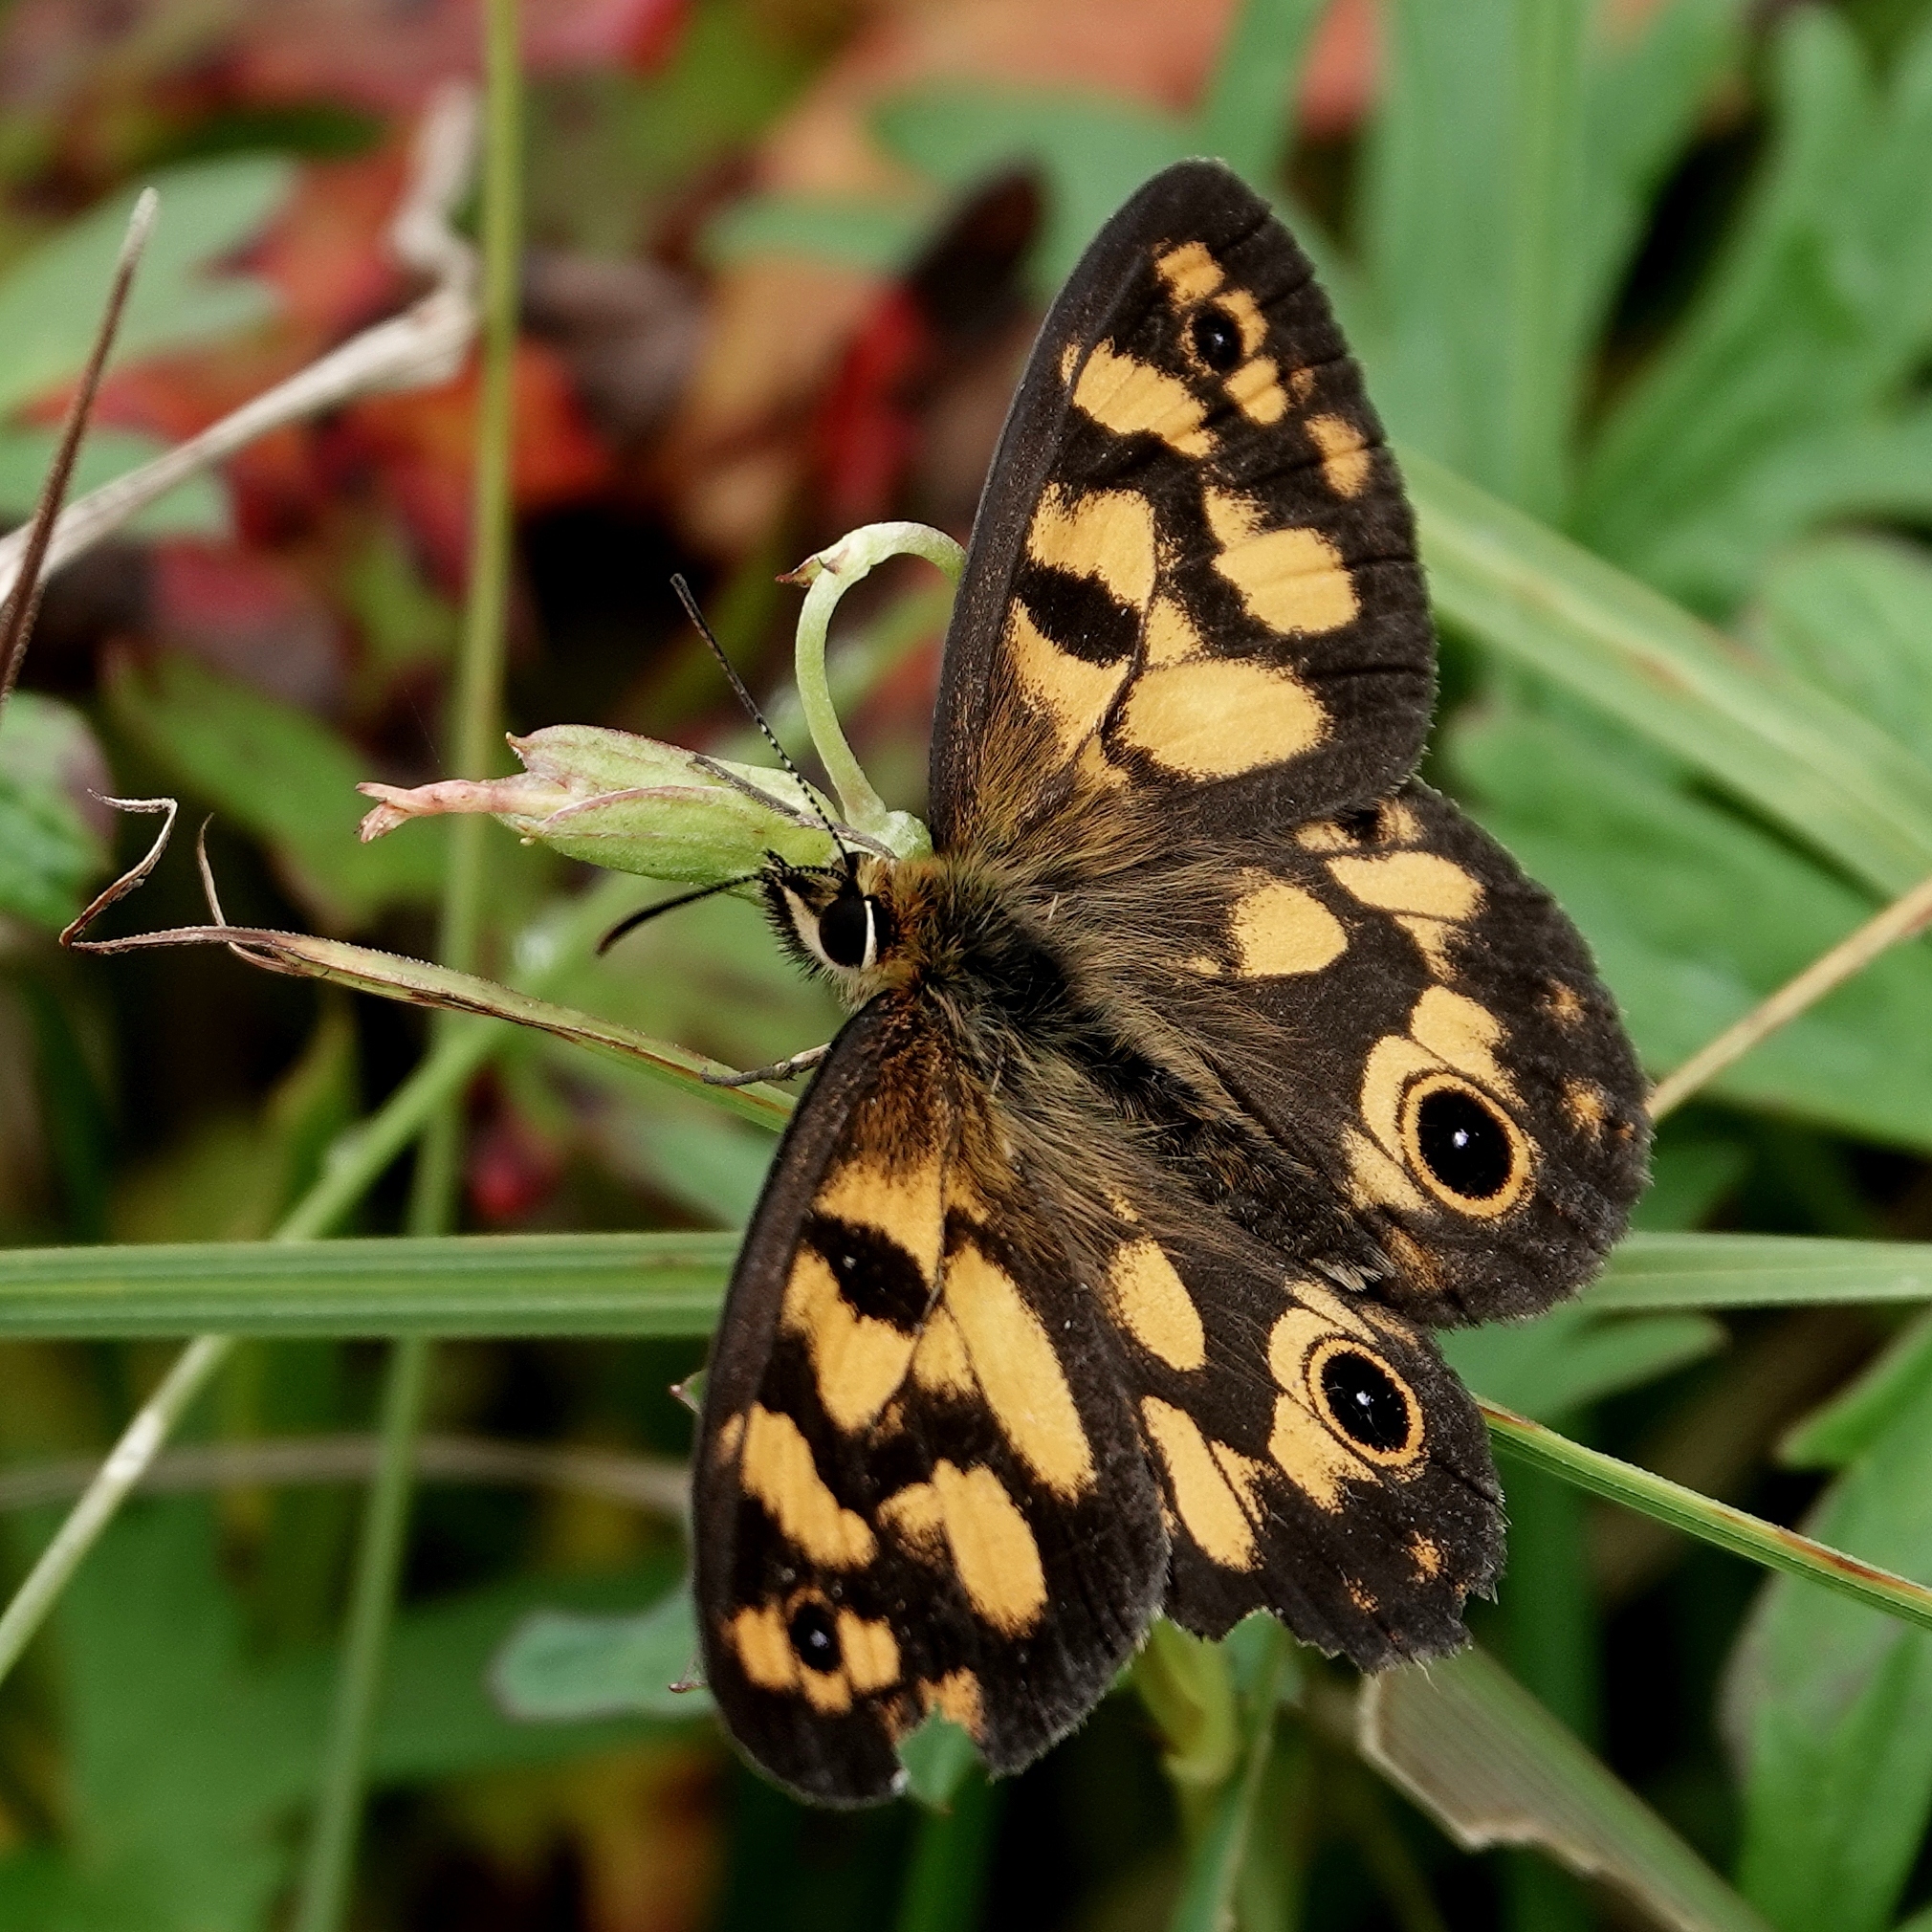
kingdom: Animalia
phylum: Arthropoda
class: Insecta
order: Lepidoptera
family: Nymphalidae
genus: Heteronympha
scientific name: Heteronympha cordace
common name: Bright-eyed brown
